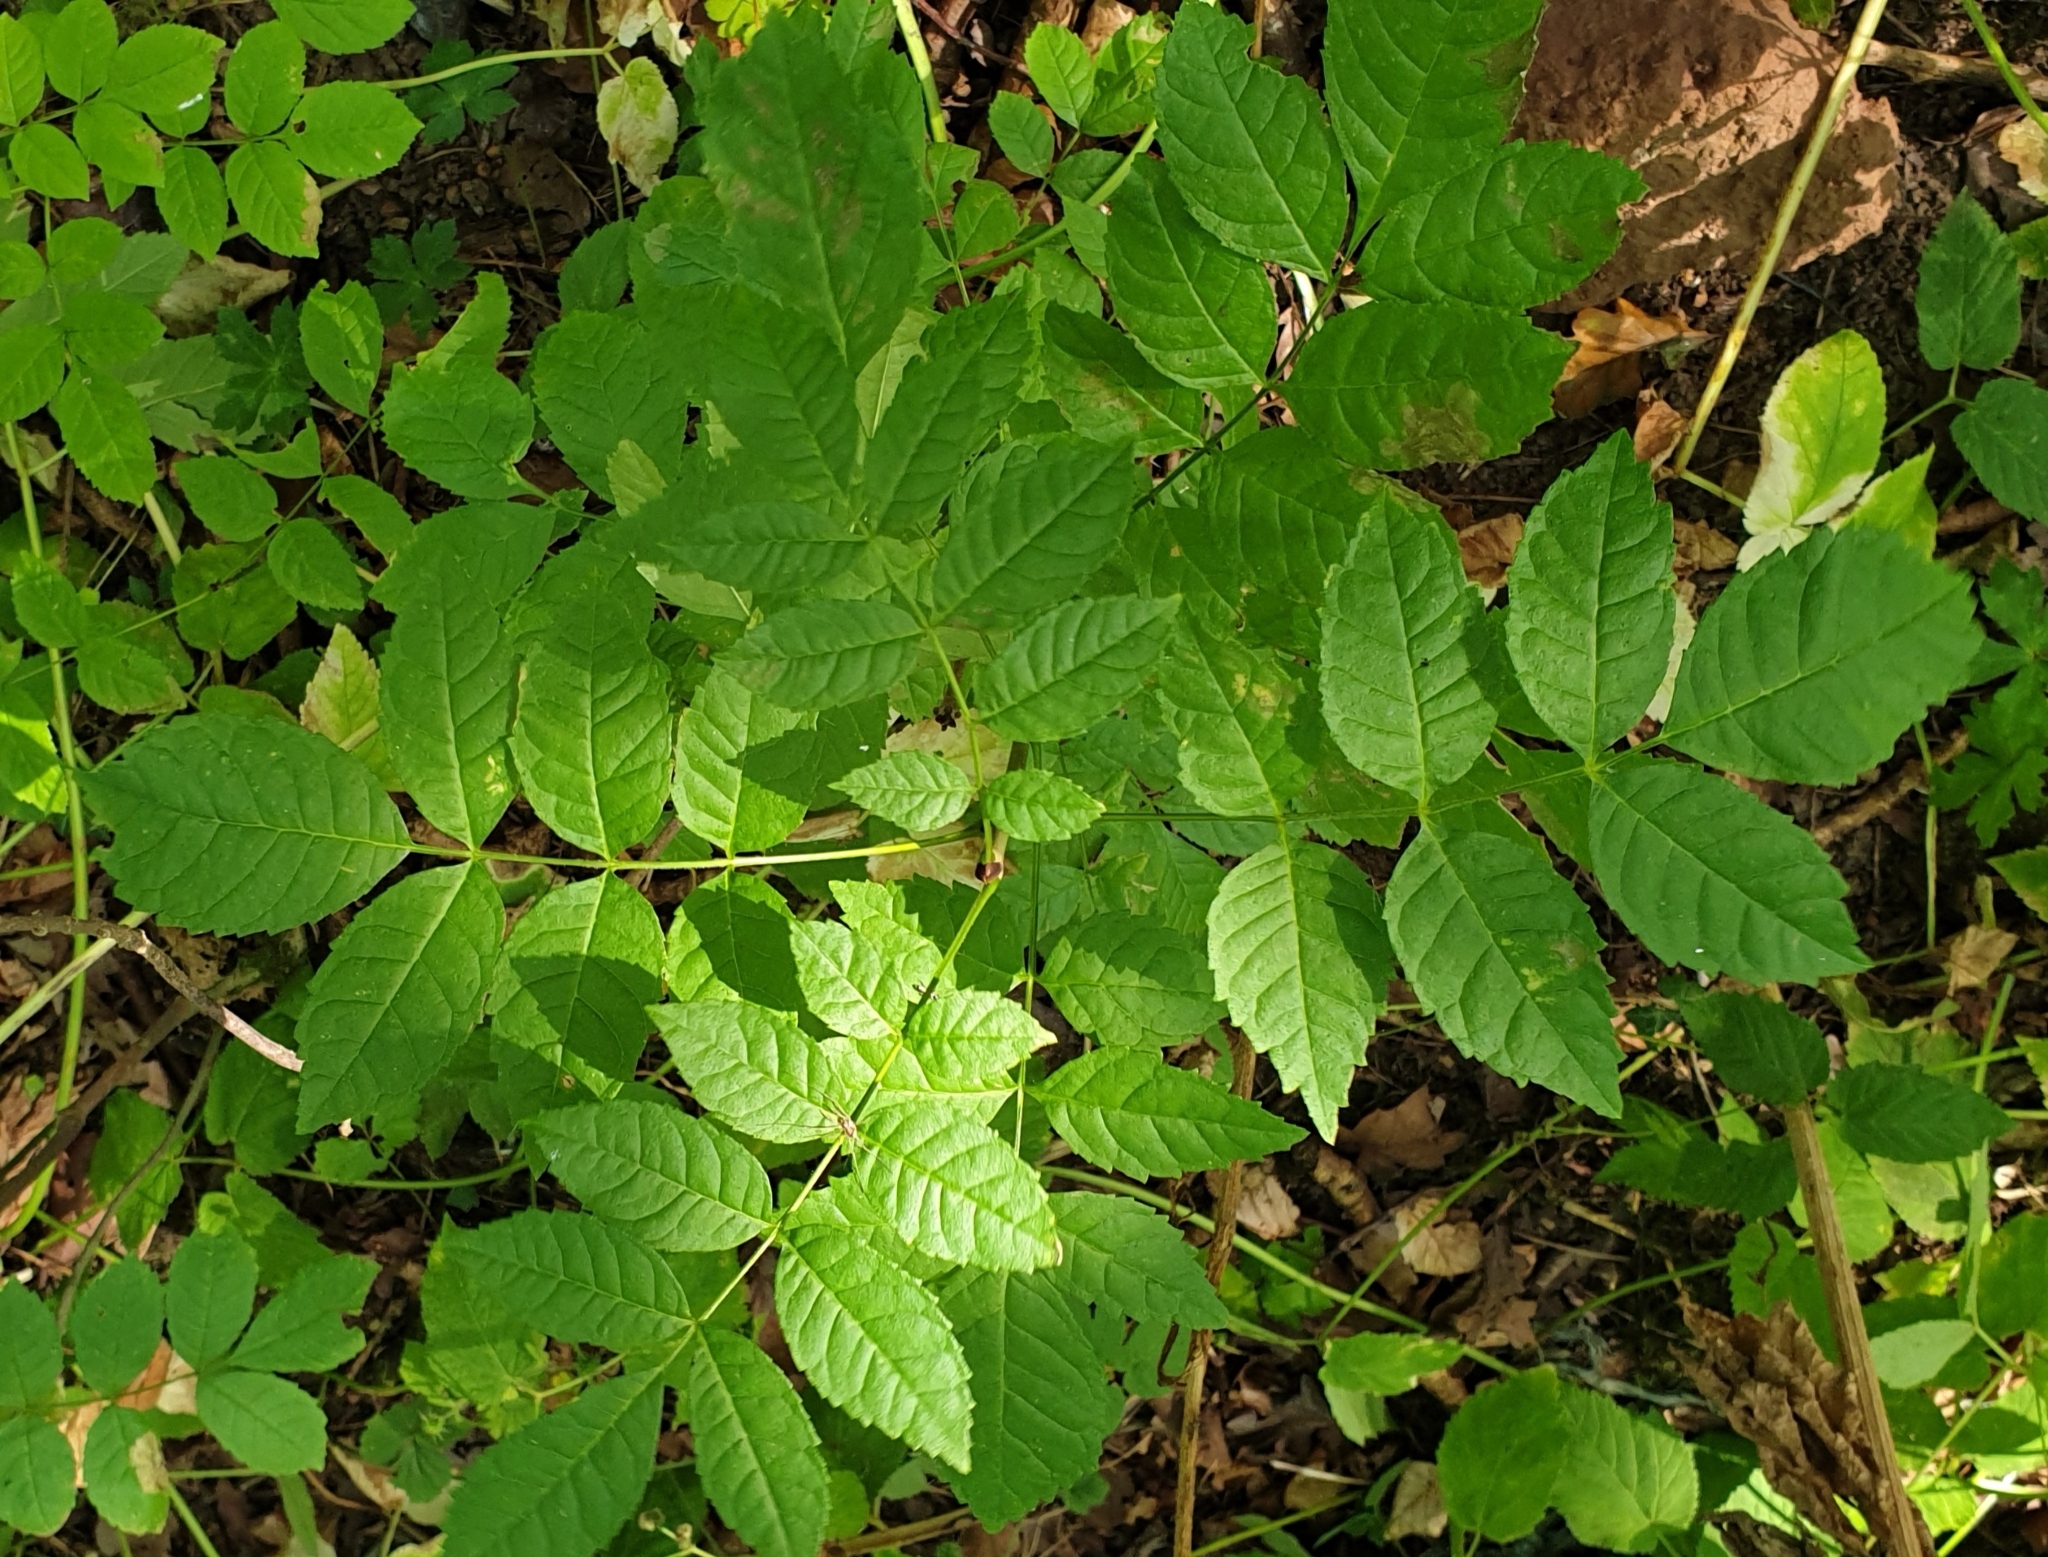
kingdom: Plantae
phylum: Tracheophyta
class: Magnoliopsida
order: Lamiales
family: Oleaceae
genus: Fraxinus
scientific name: Fraxinus excelsior
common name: European ash
